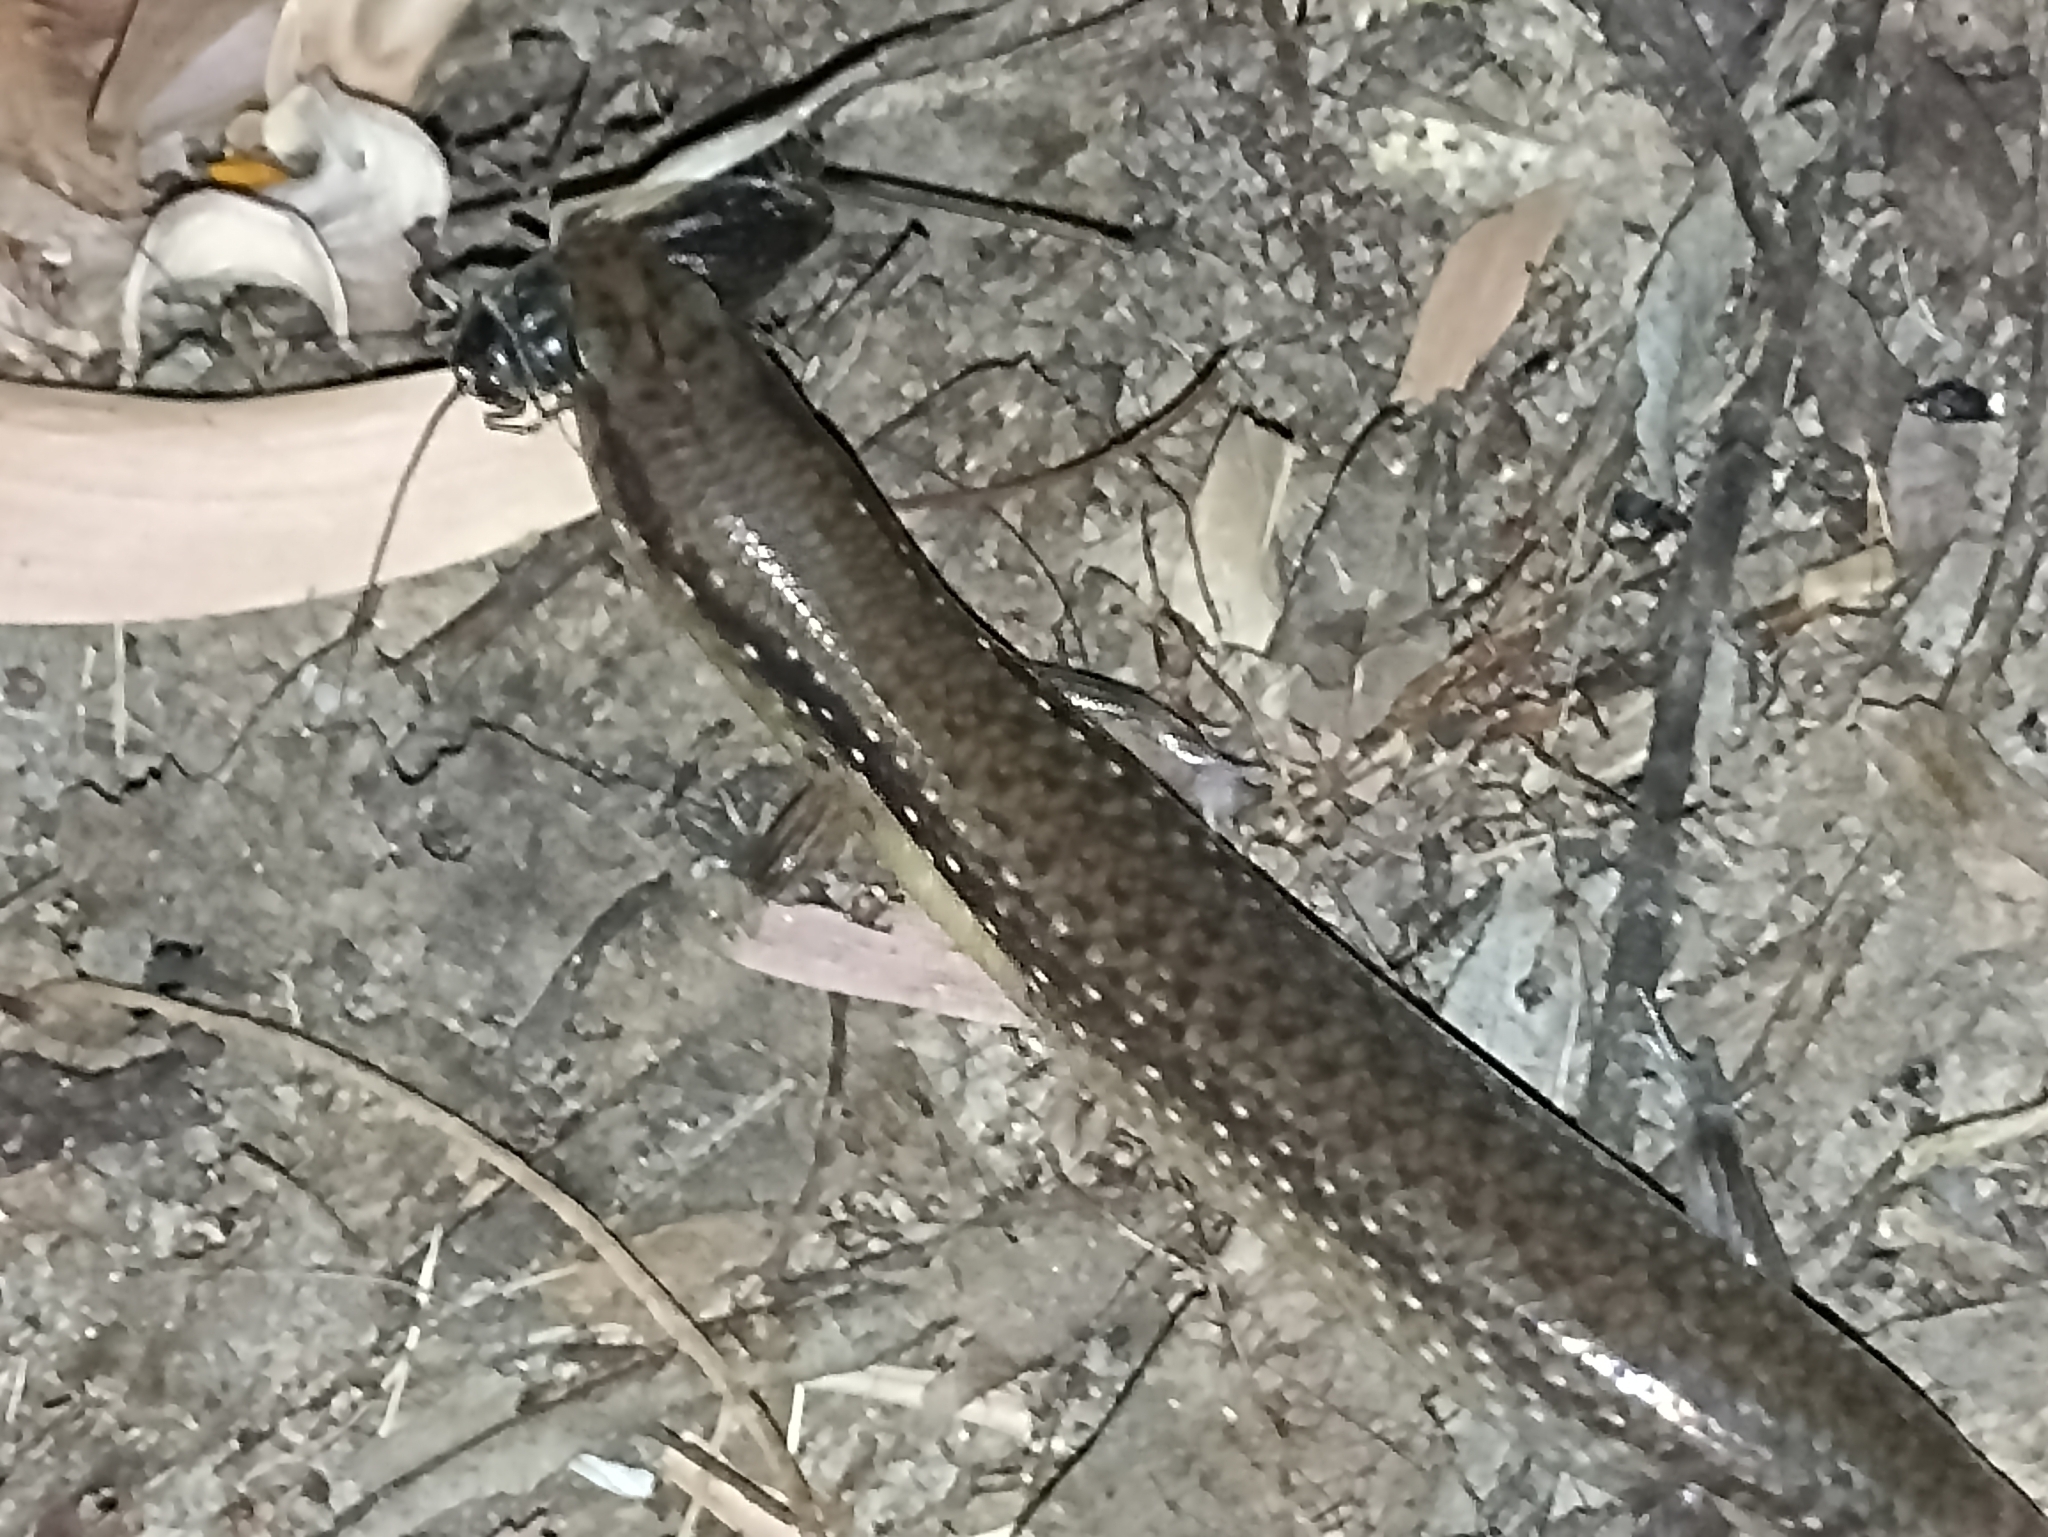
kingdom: Animalia
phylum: Chordata
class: Squamata
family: Scincidae
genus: Eremiascincus
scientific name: Eremiascincus douglasi
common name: Orange-sided bar-lipped skink
